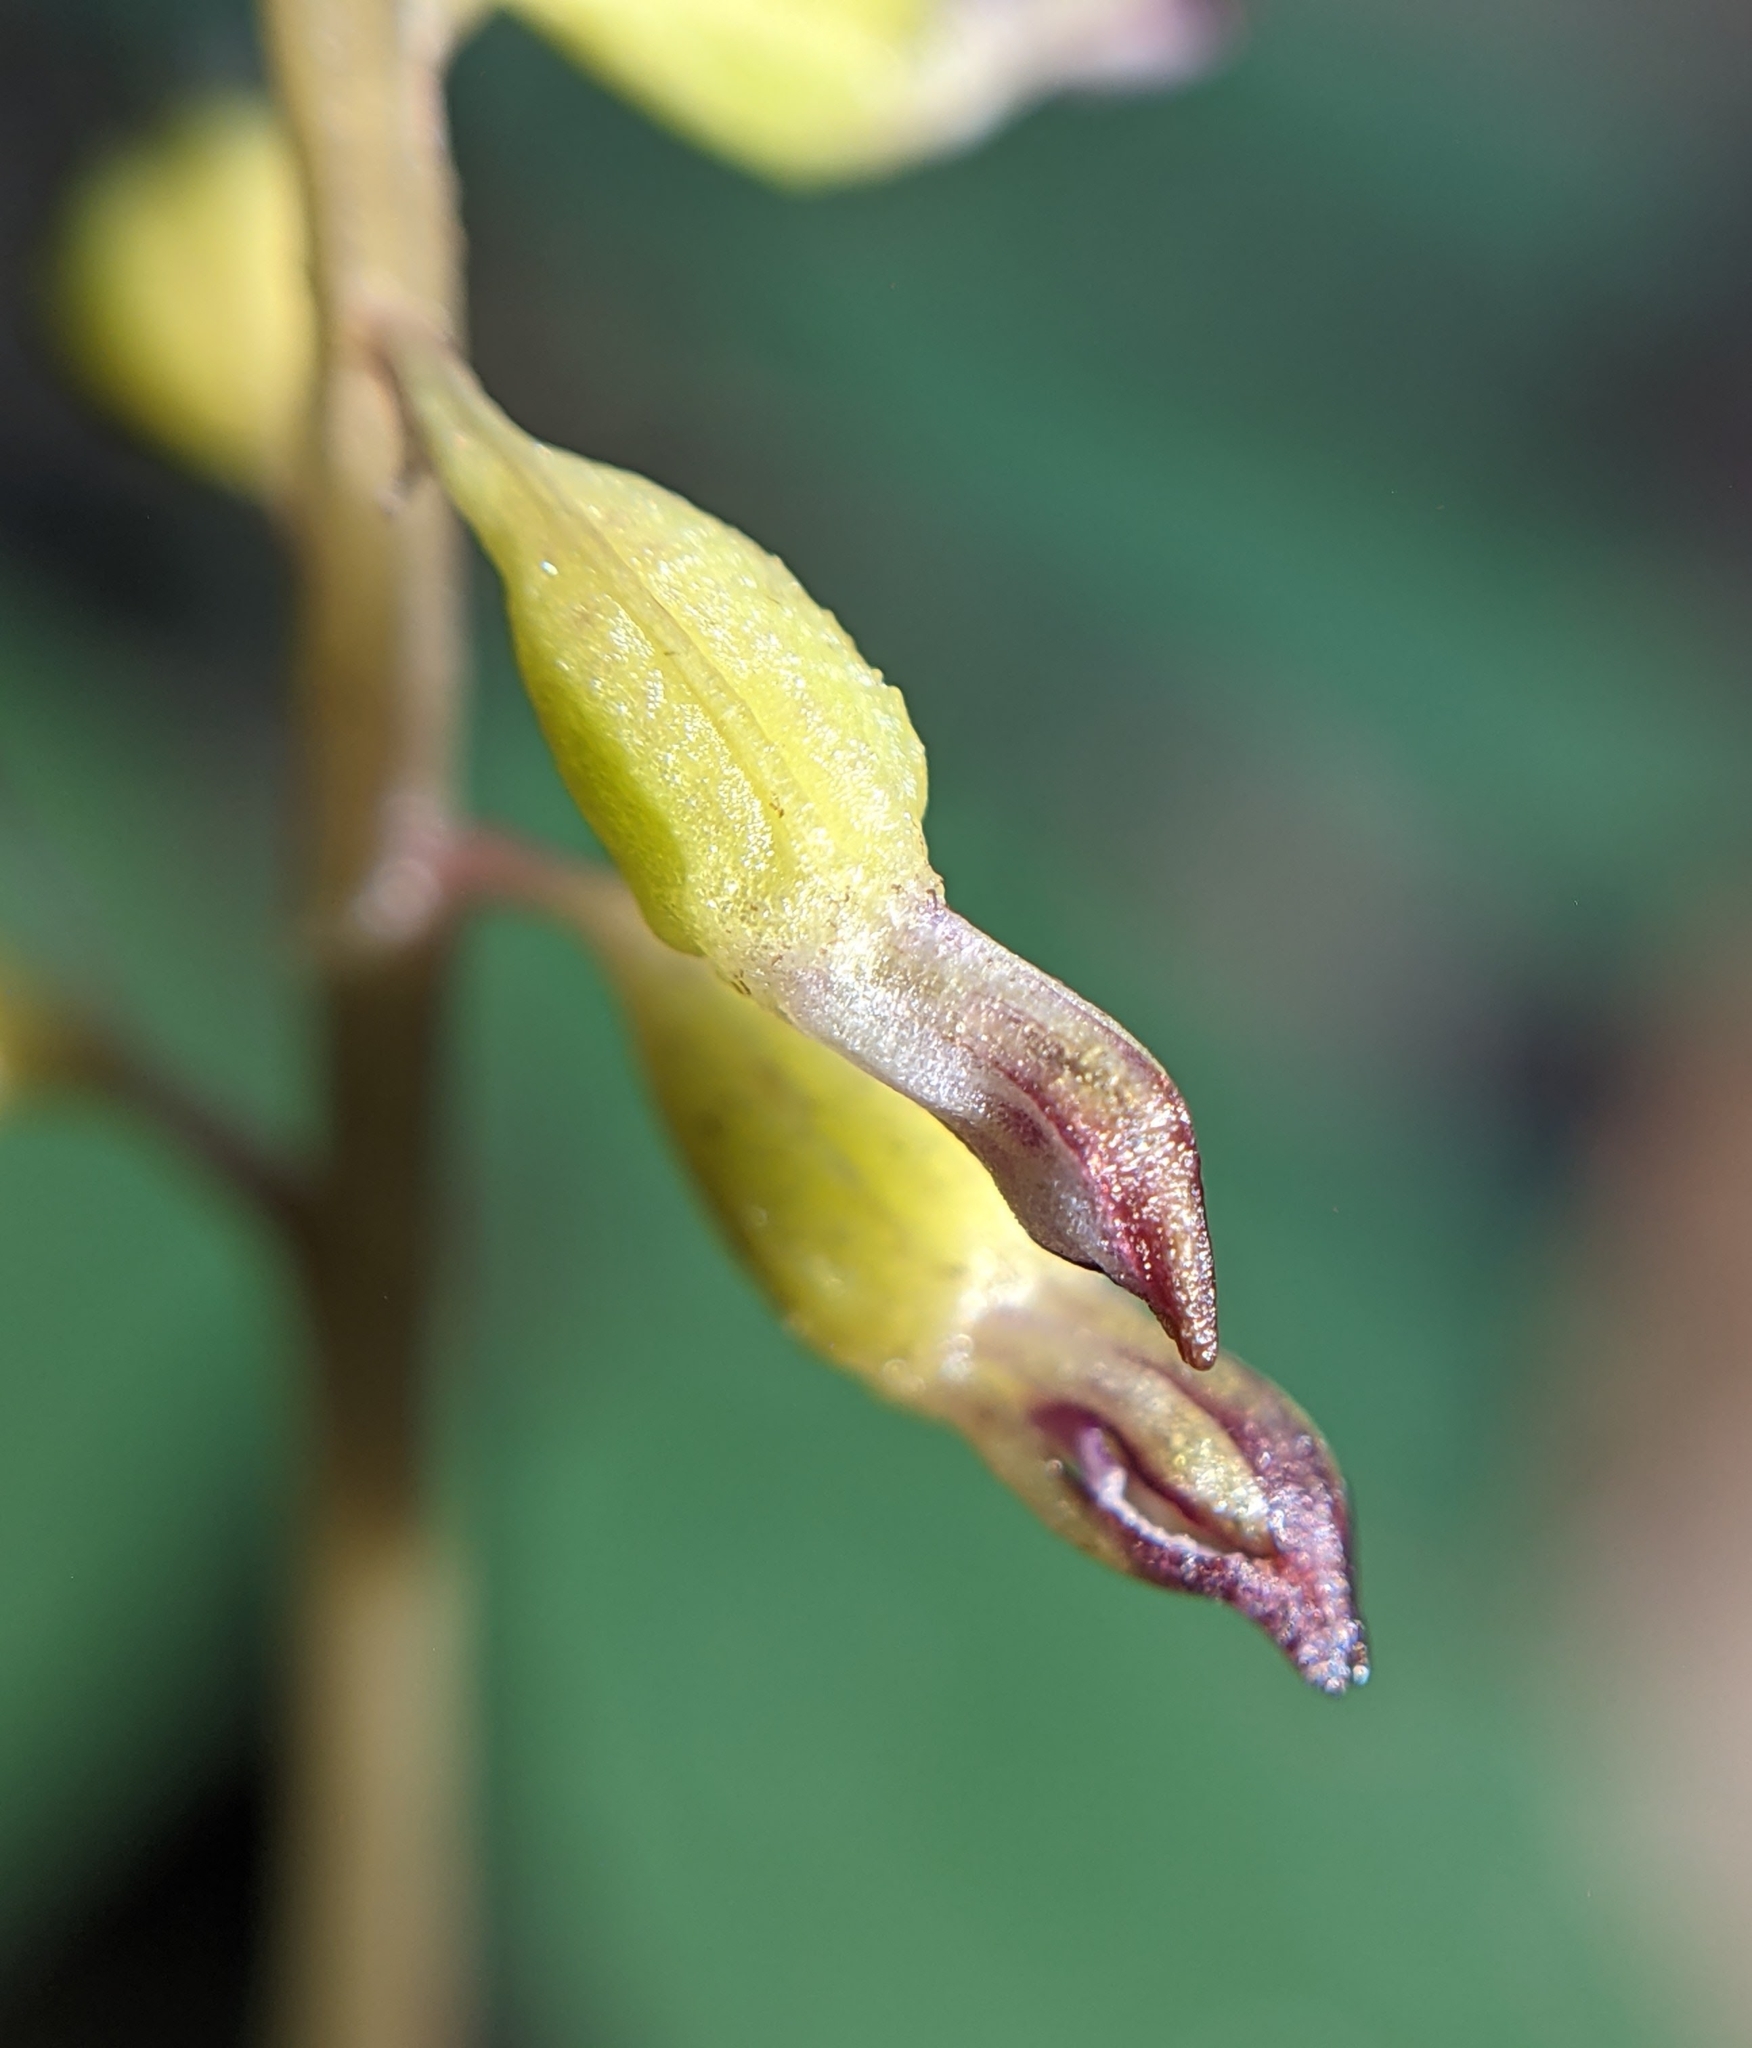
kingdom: Plantae
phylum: Tracheophyta
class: Liliopsida
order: Asparagales
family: Orchidaceae
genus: Corallorhiza
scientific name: Corallorhiza odontorhiza
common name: Autumn coralroot
